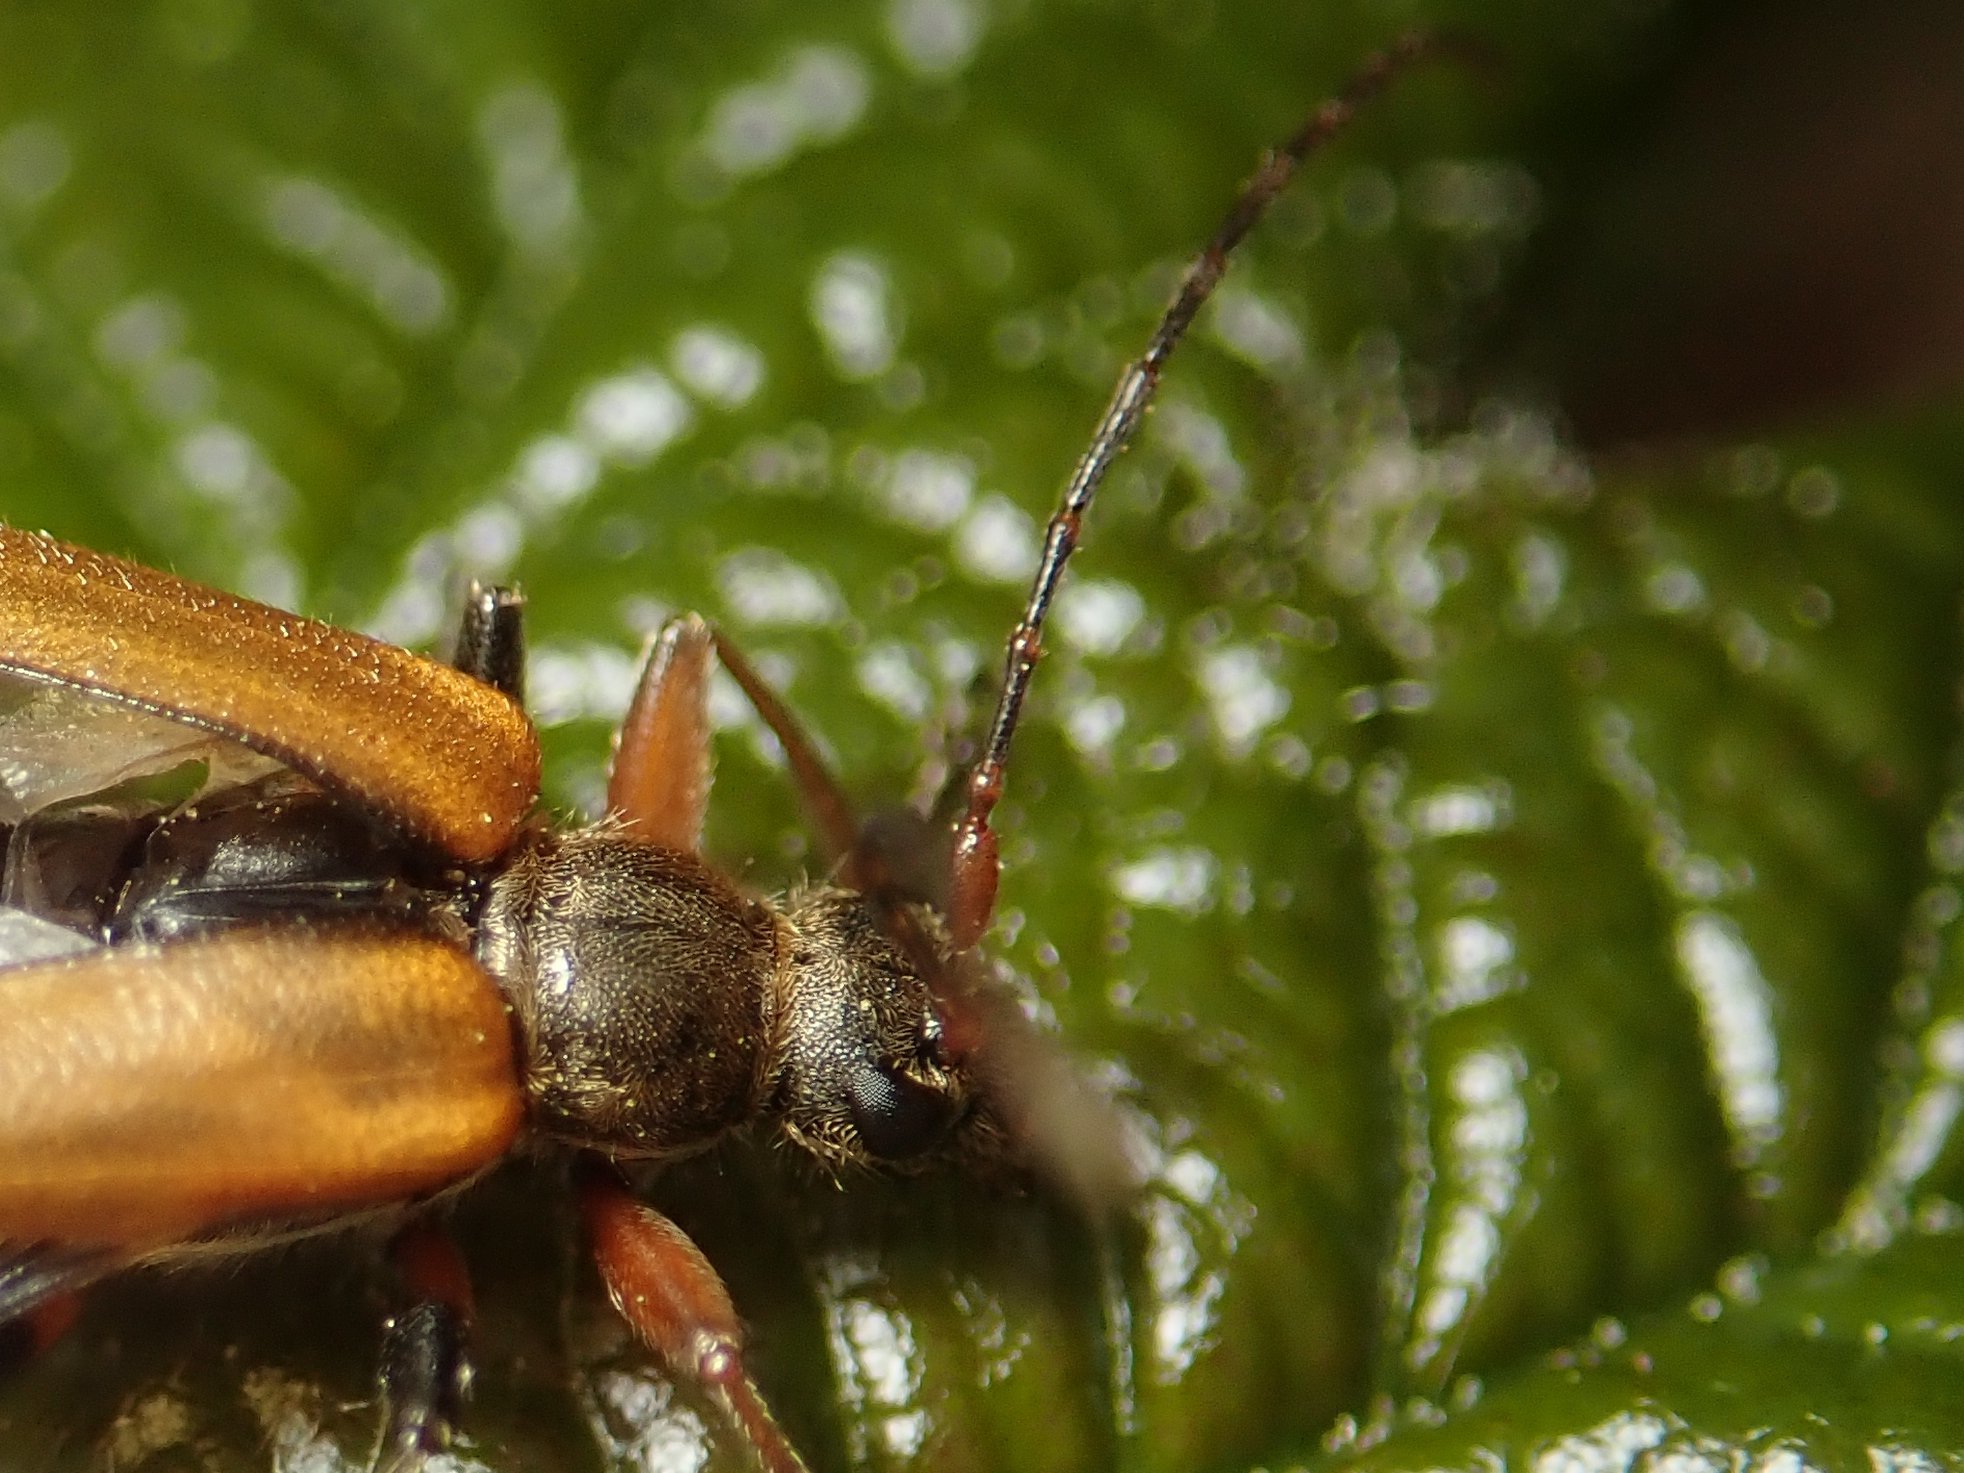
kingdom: Animalia
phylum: Arthropoda
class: Insecta
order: Coleoptera
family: Cerambycidae
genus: Cortodera
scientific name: Cortodera humeralis
